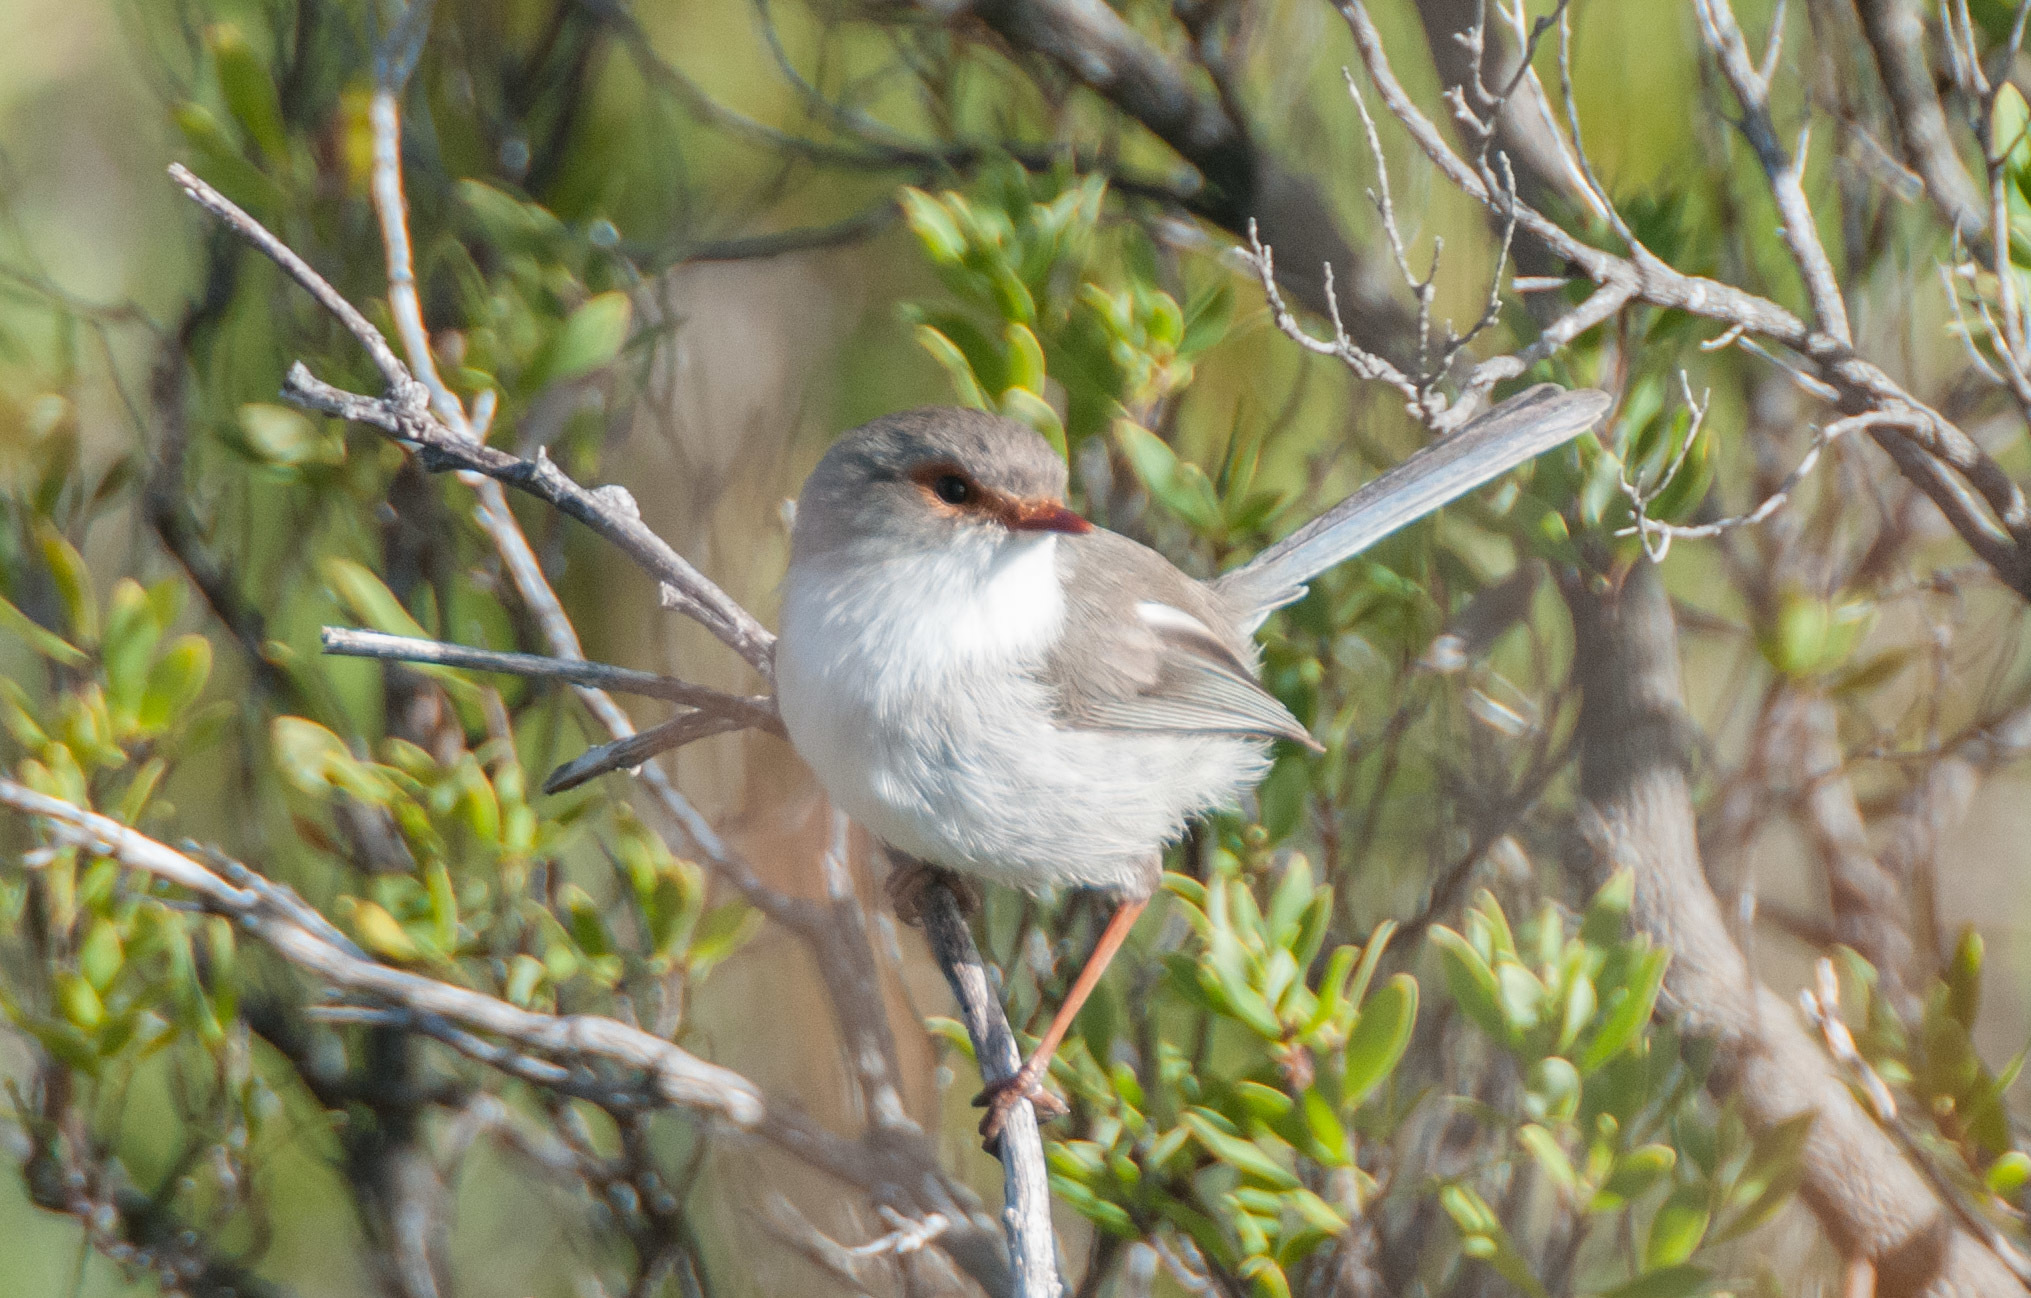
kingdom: Animalia
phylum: Chordata
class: Aves
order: Passeriformes
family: Maluridae
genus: Malurus
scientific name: Malurus cyaneus
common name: Superb fairywren
